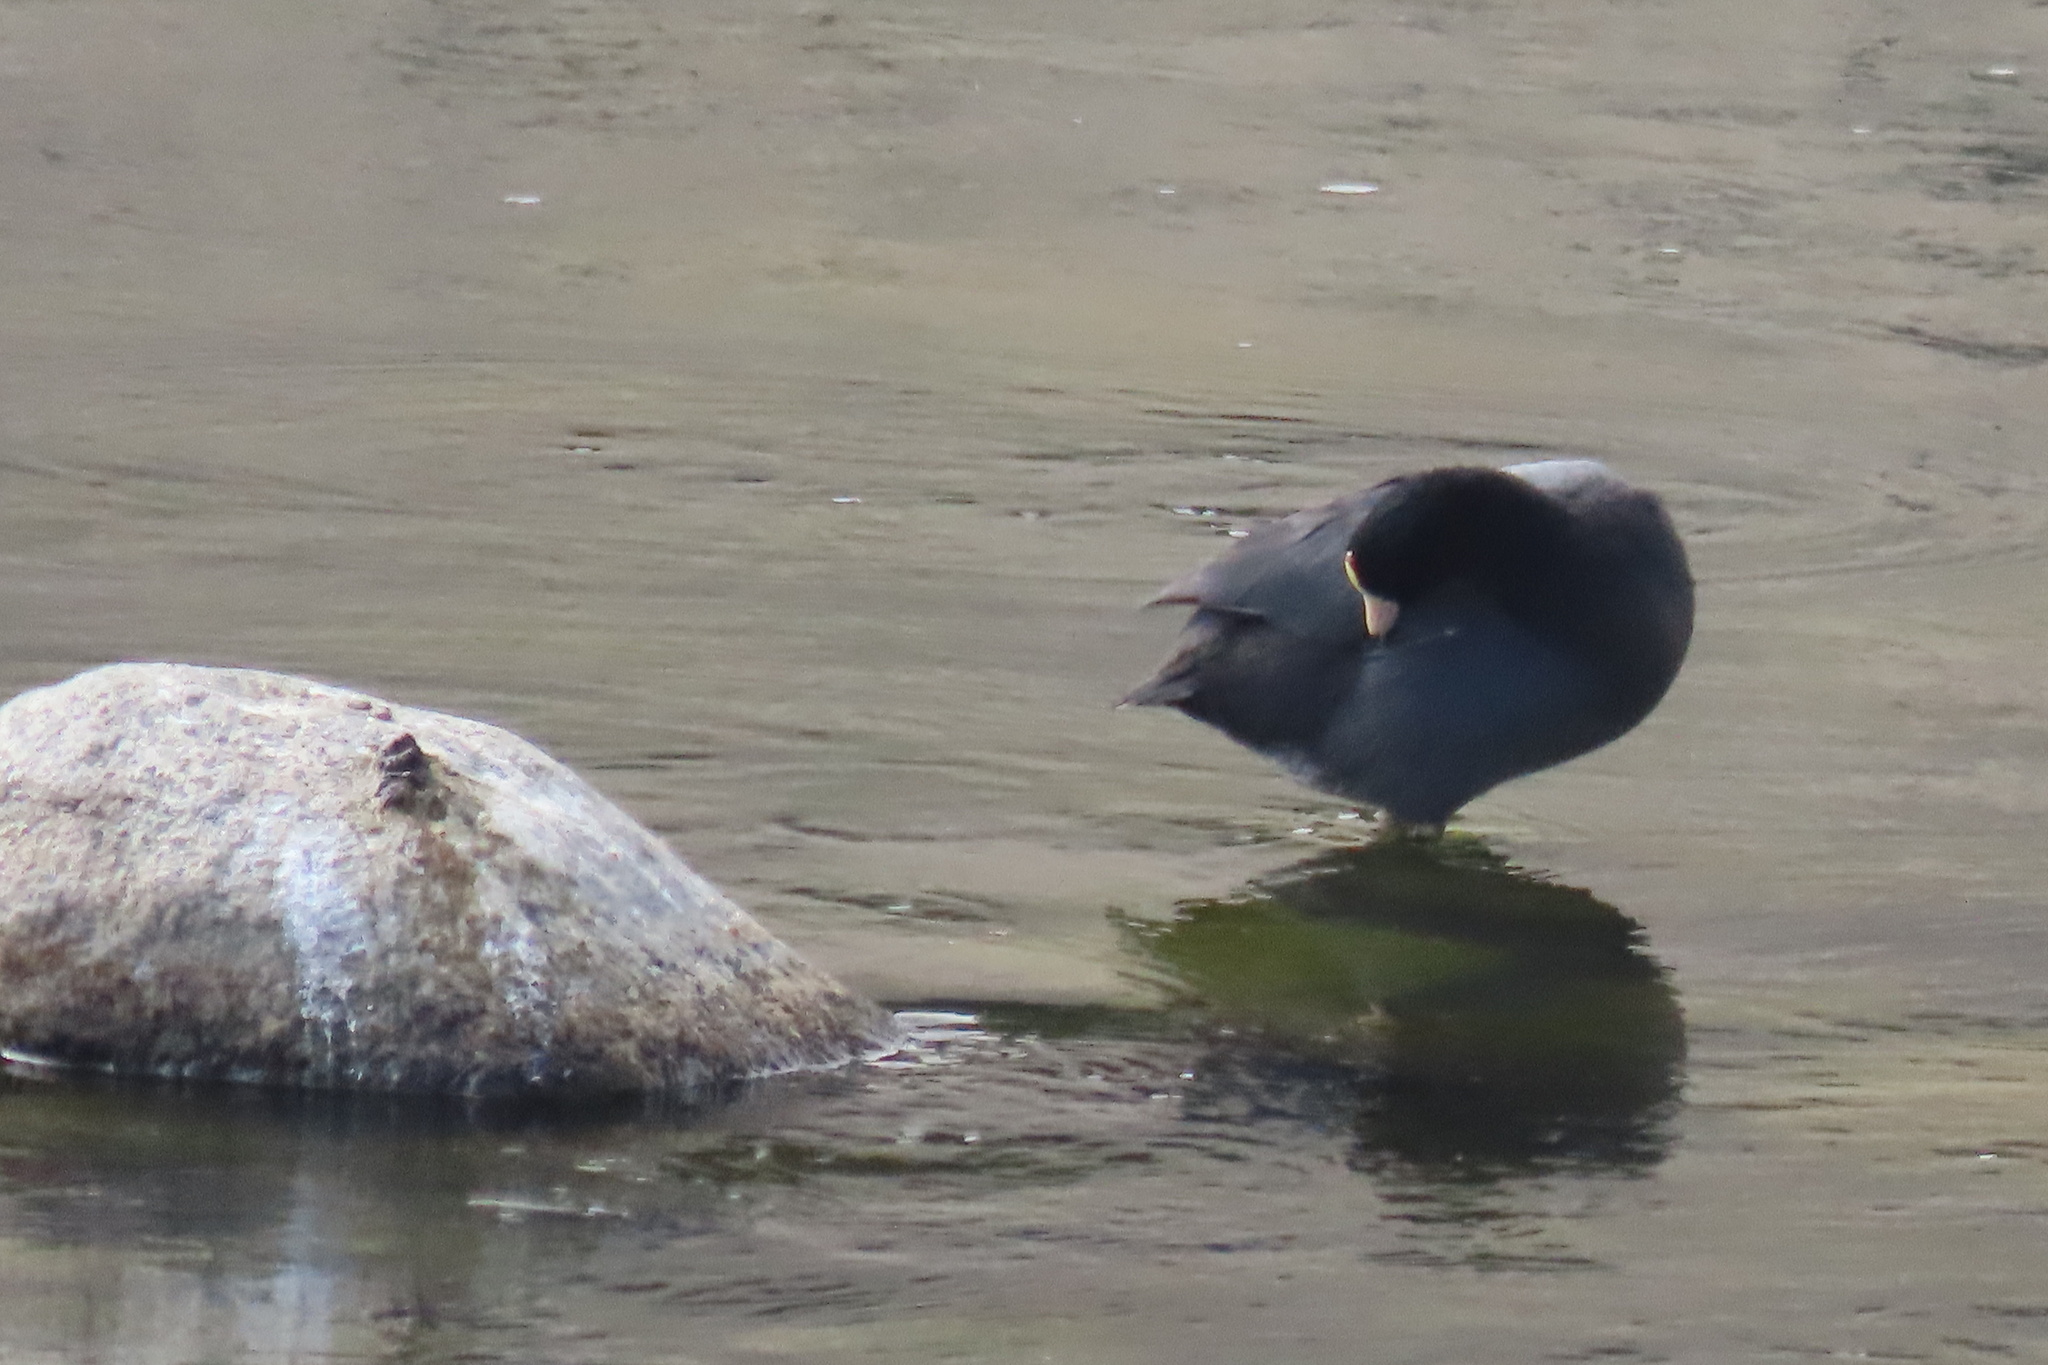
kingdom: Animalia
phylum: Chordata
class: Aves
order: Gruiformes
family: Rallidae
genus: Fulica
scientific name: Fulica americana
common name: American coot
